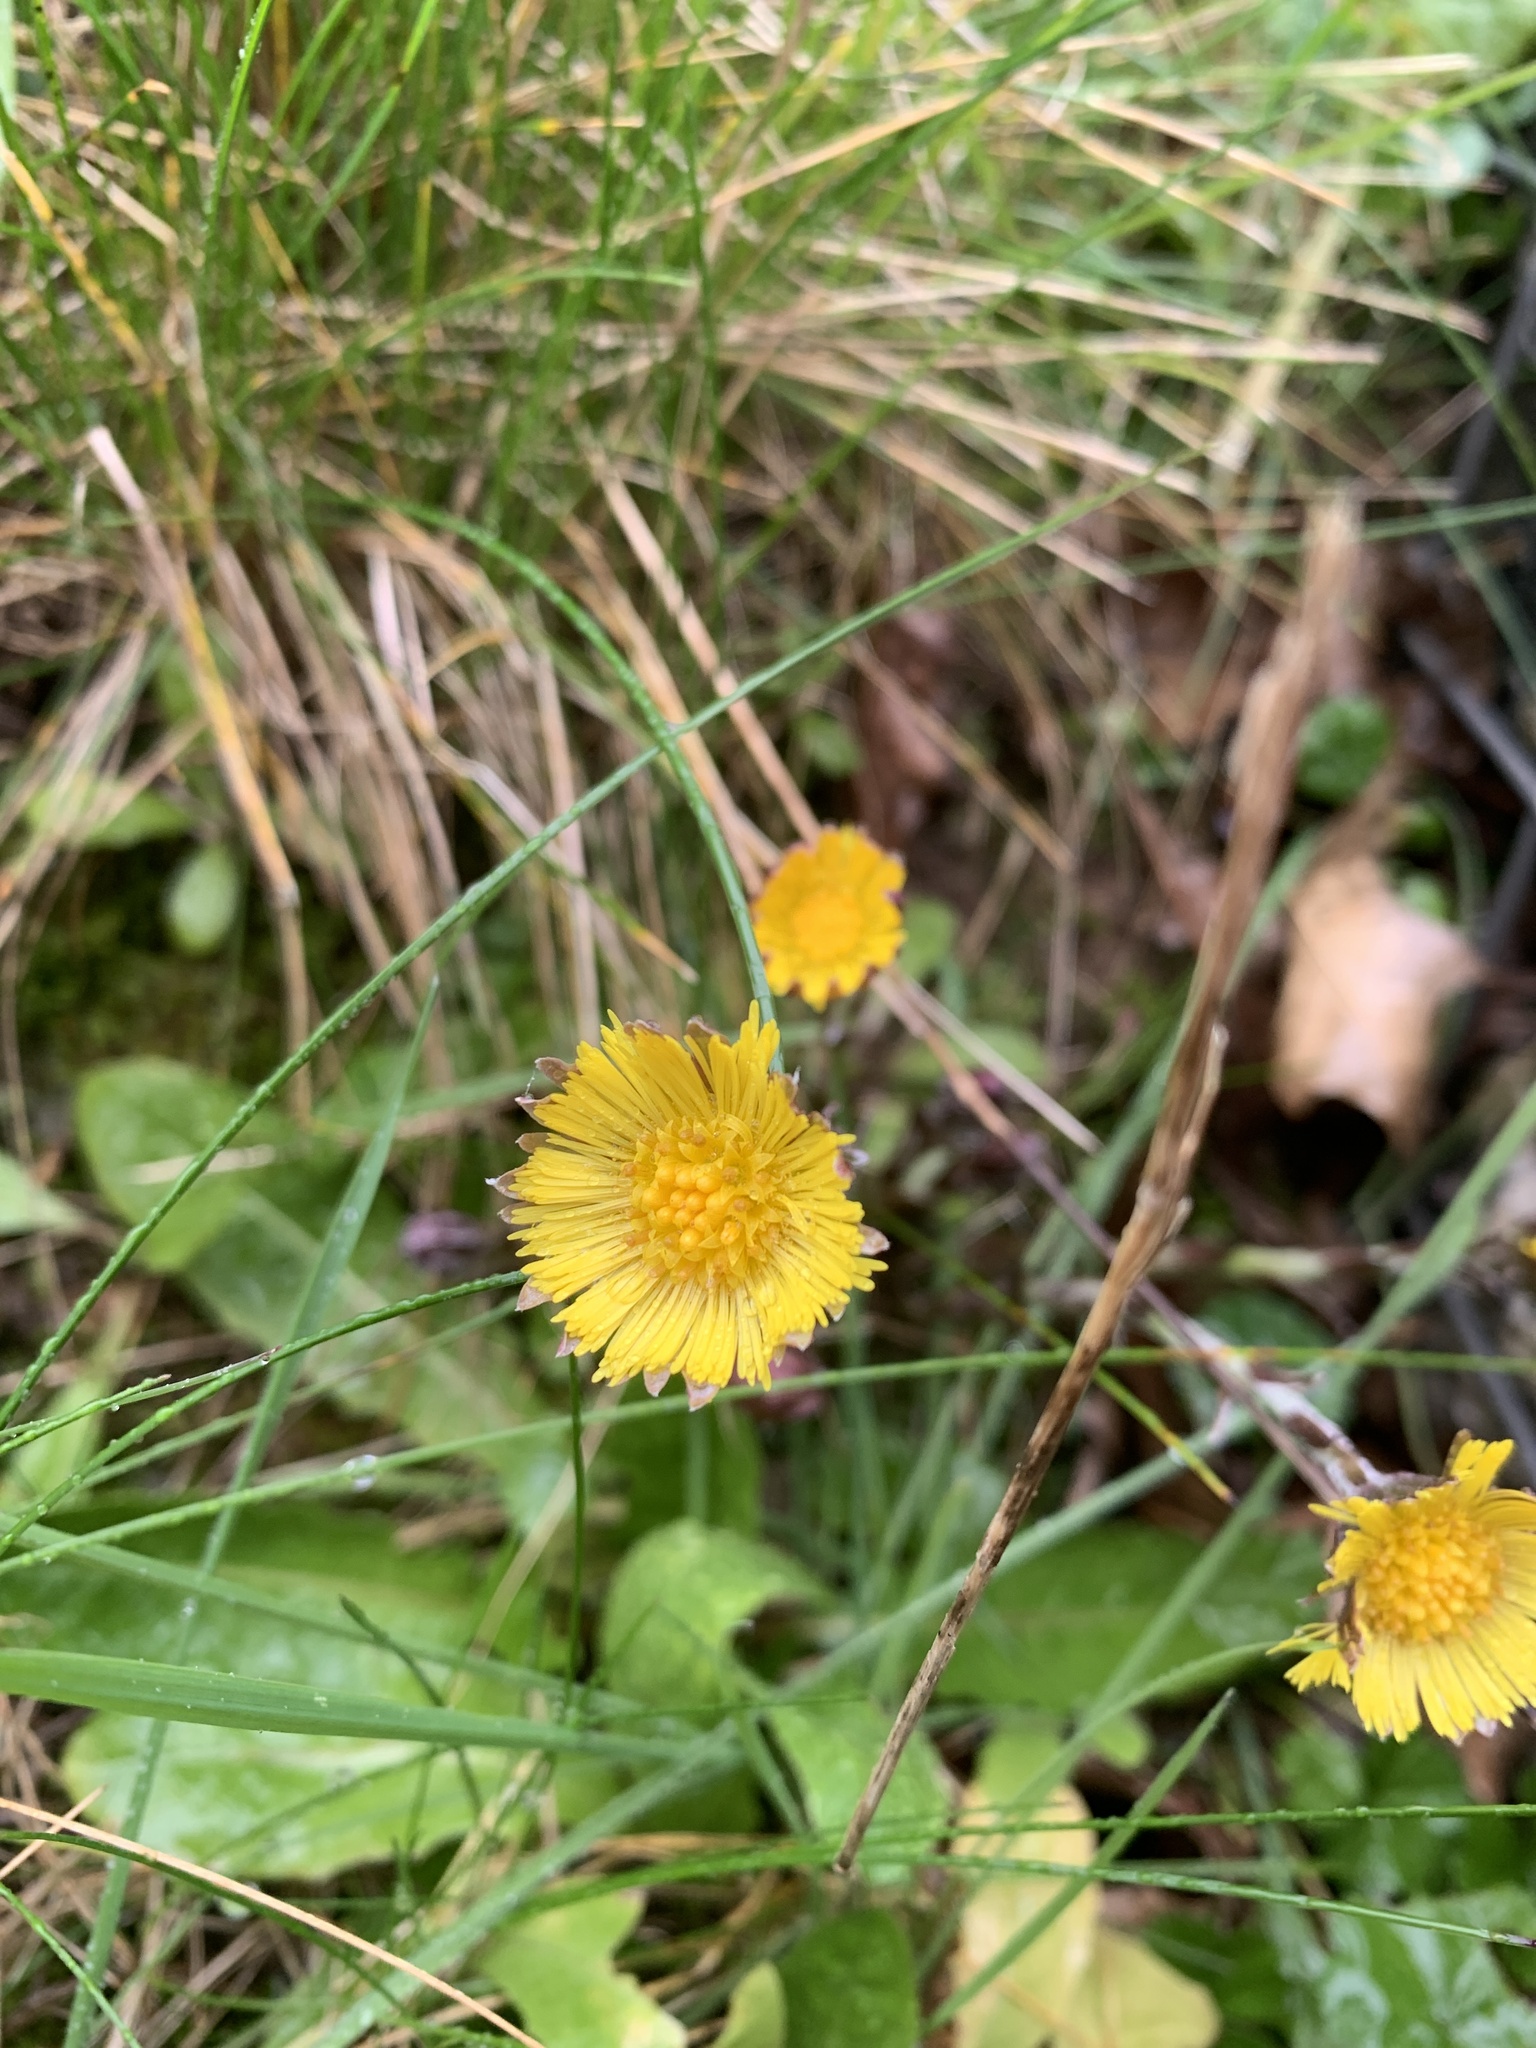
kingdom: Plantae
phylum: Tracheophyta
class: Magnoliopsida
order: Asterales
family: Asteraceae
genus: Tussilago
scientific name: Tussilago farfara
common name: Coltsfoot
